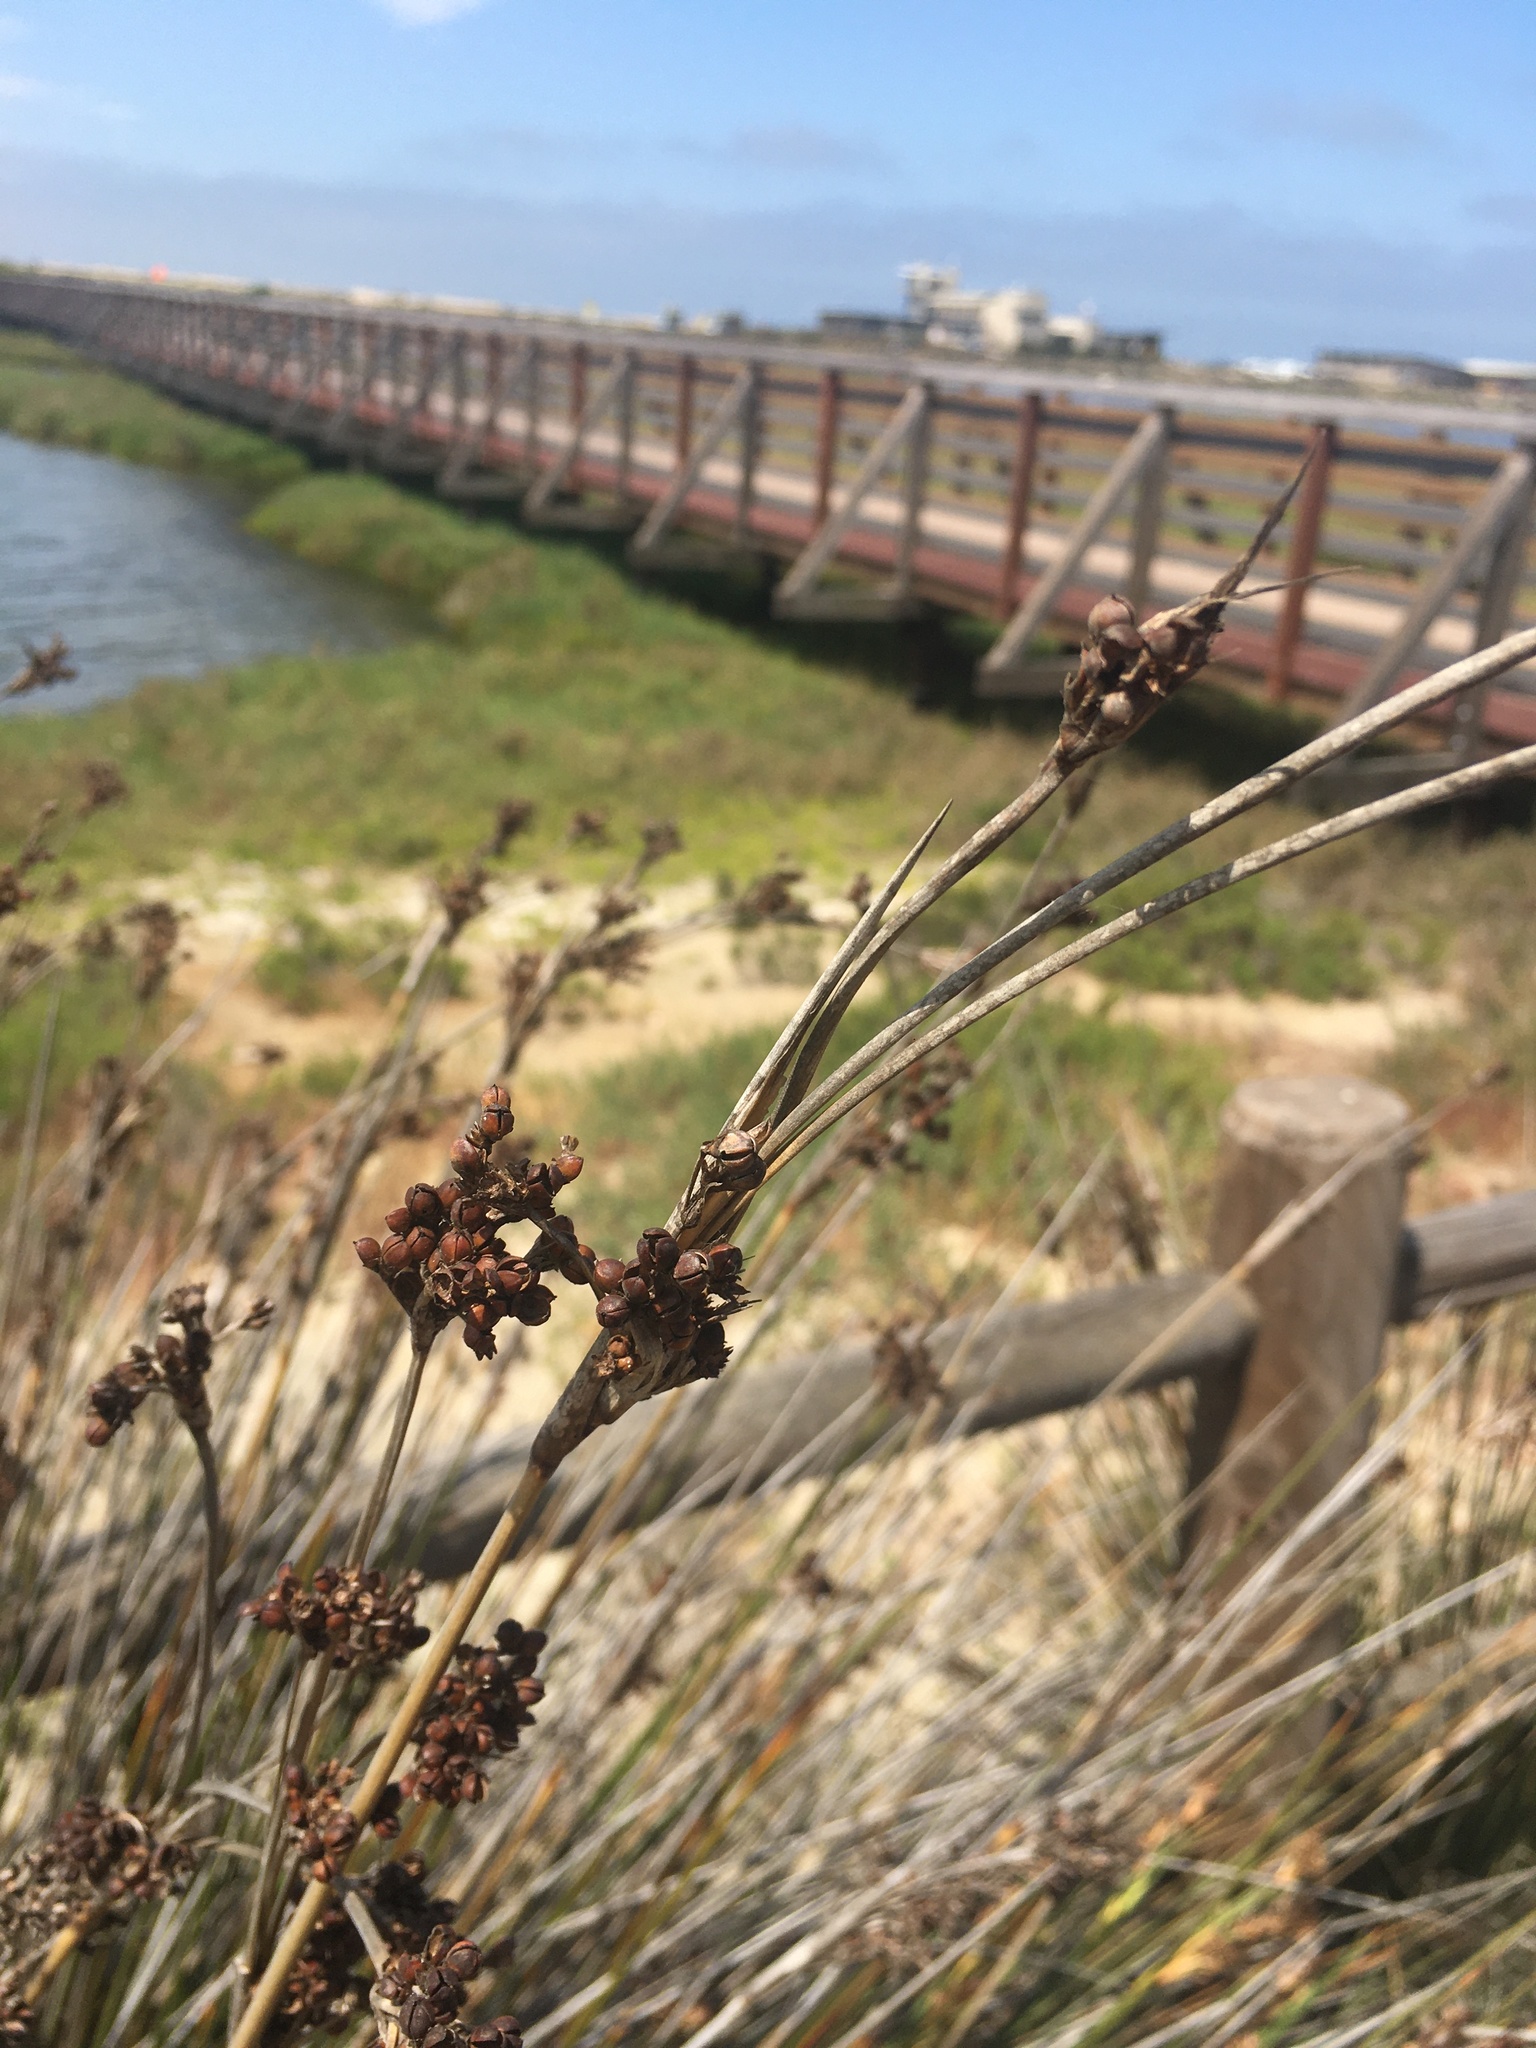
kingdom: Plantae
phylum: Tracheophyta
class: Liliopsida
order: Poales
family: Juncaceae
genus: Juncus
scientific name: Juncus acutus
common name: Sharp rush
